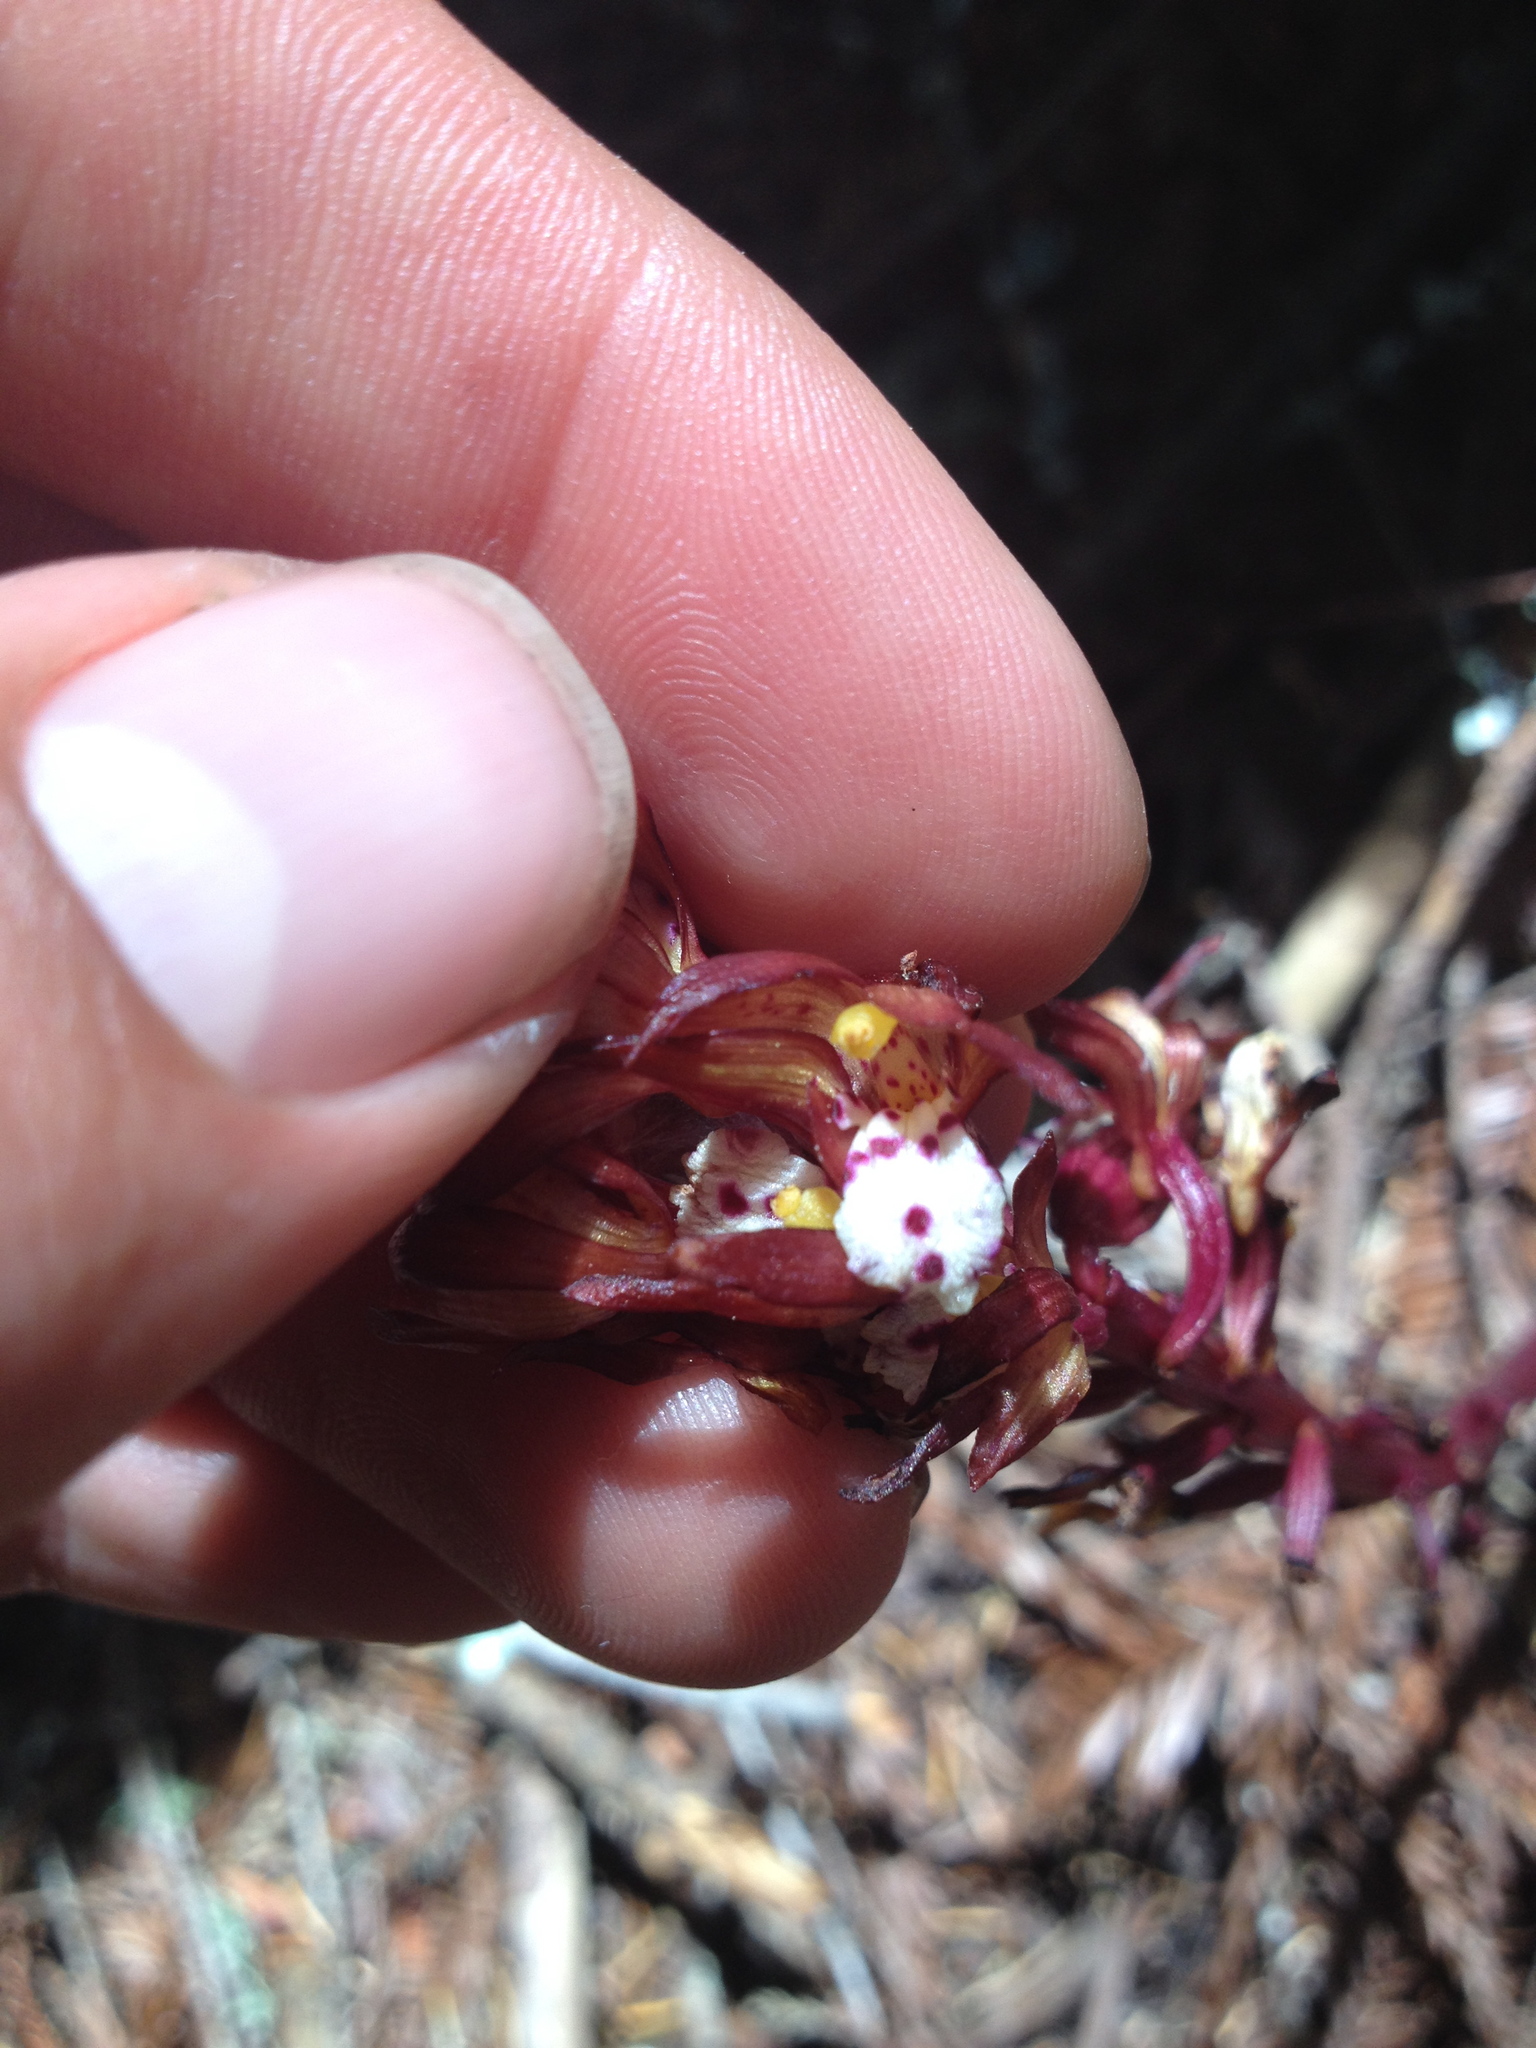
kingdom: Plantae
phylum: Tracheophyta
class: Liliopsida
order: Asparagales
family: Orchidaceae
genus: Corallorhiza
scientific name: Corallorhiza maculata
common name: Spotted coralroot
